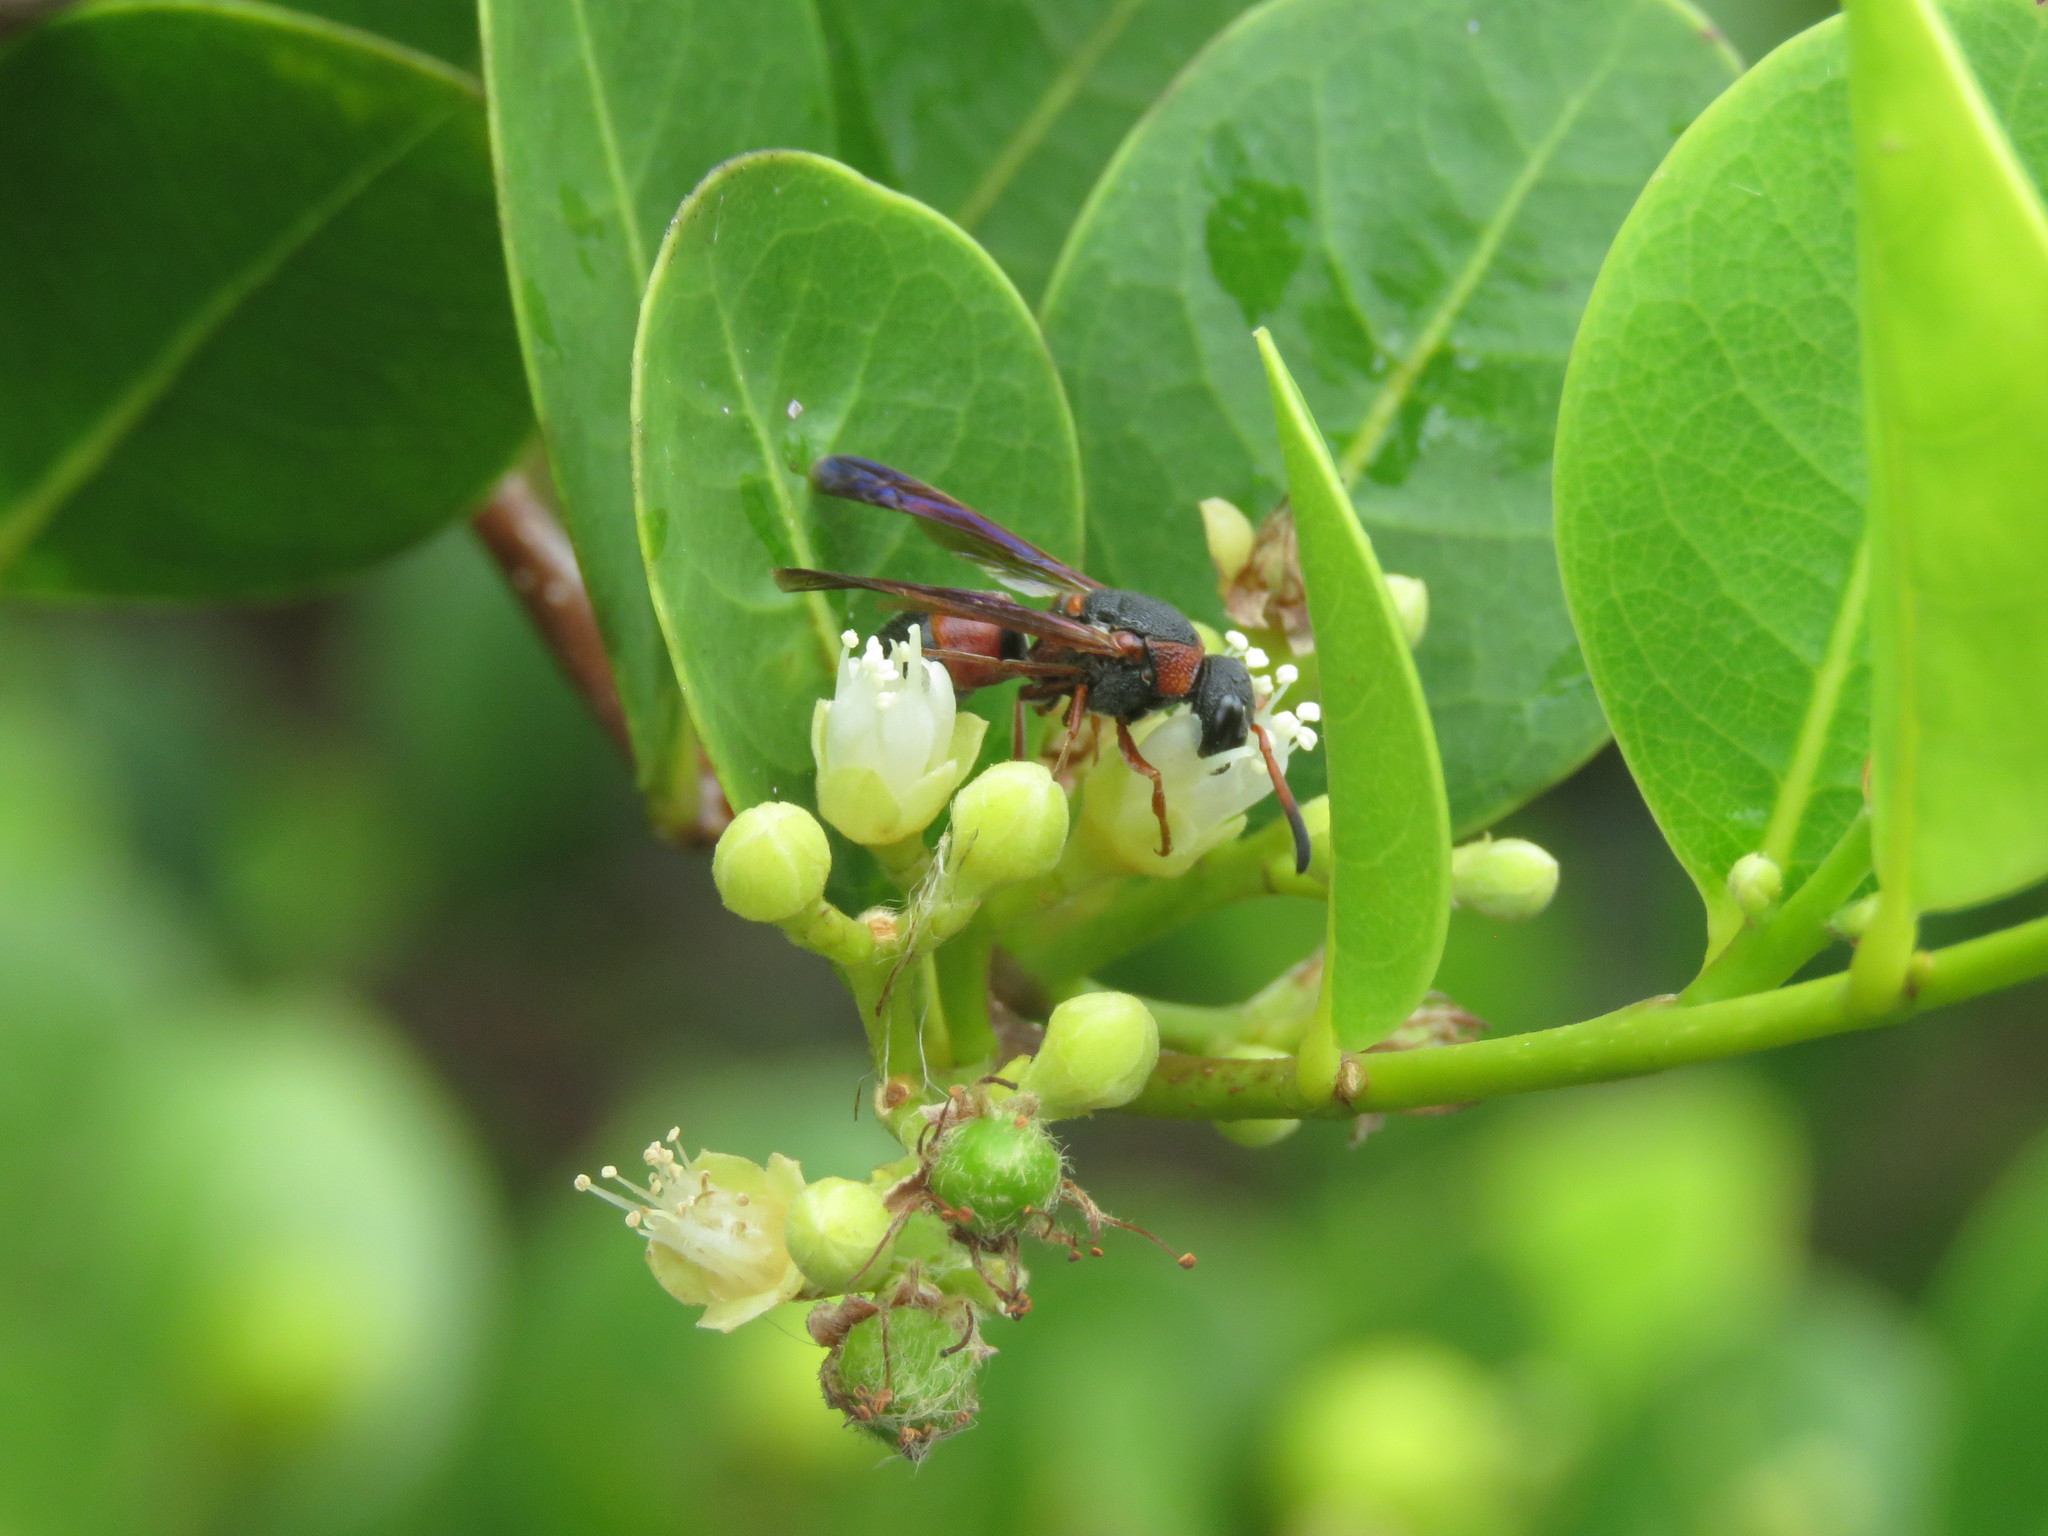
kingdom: Animalia
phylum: Arthropoda
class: Insecta
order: Hymenoptera
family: Eumenidae
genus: Pachodynerus
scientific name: Pachodynerus erynnis
